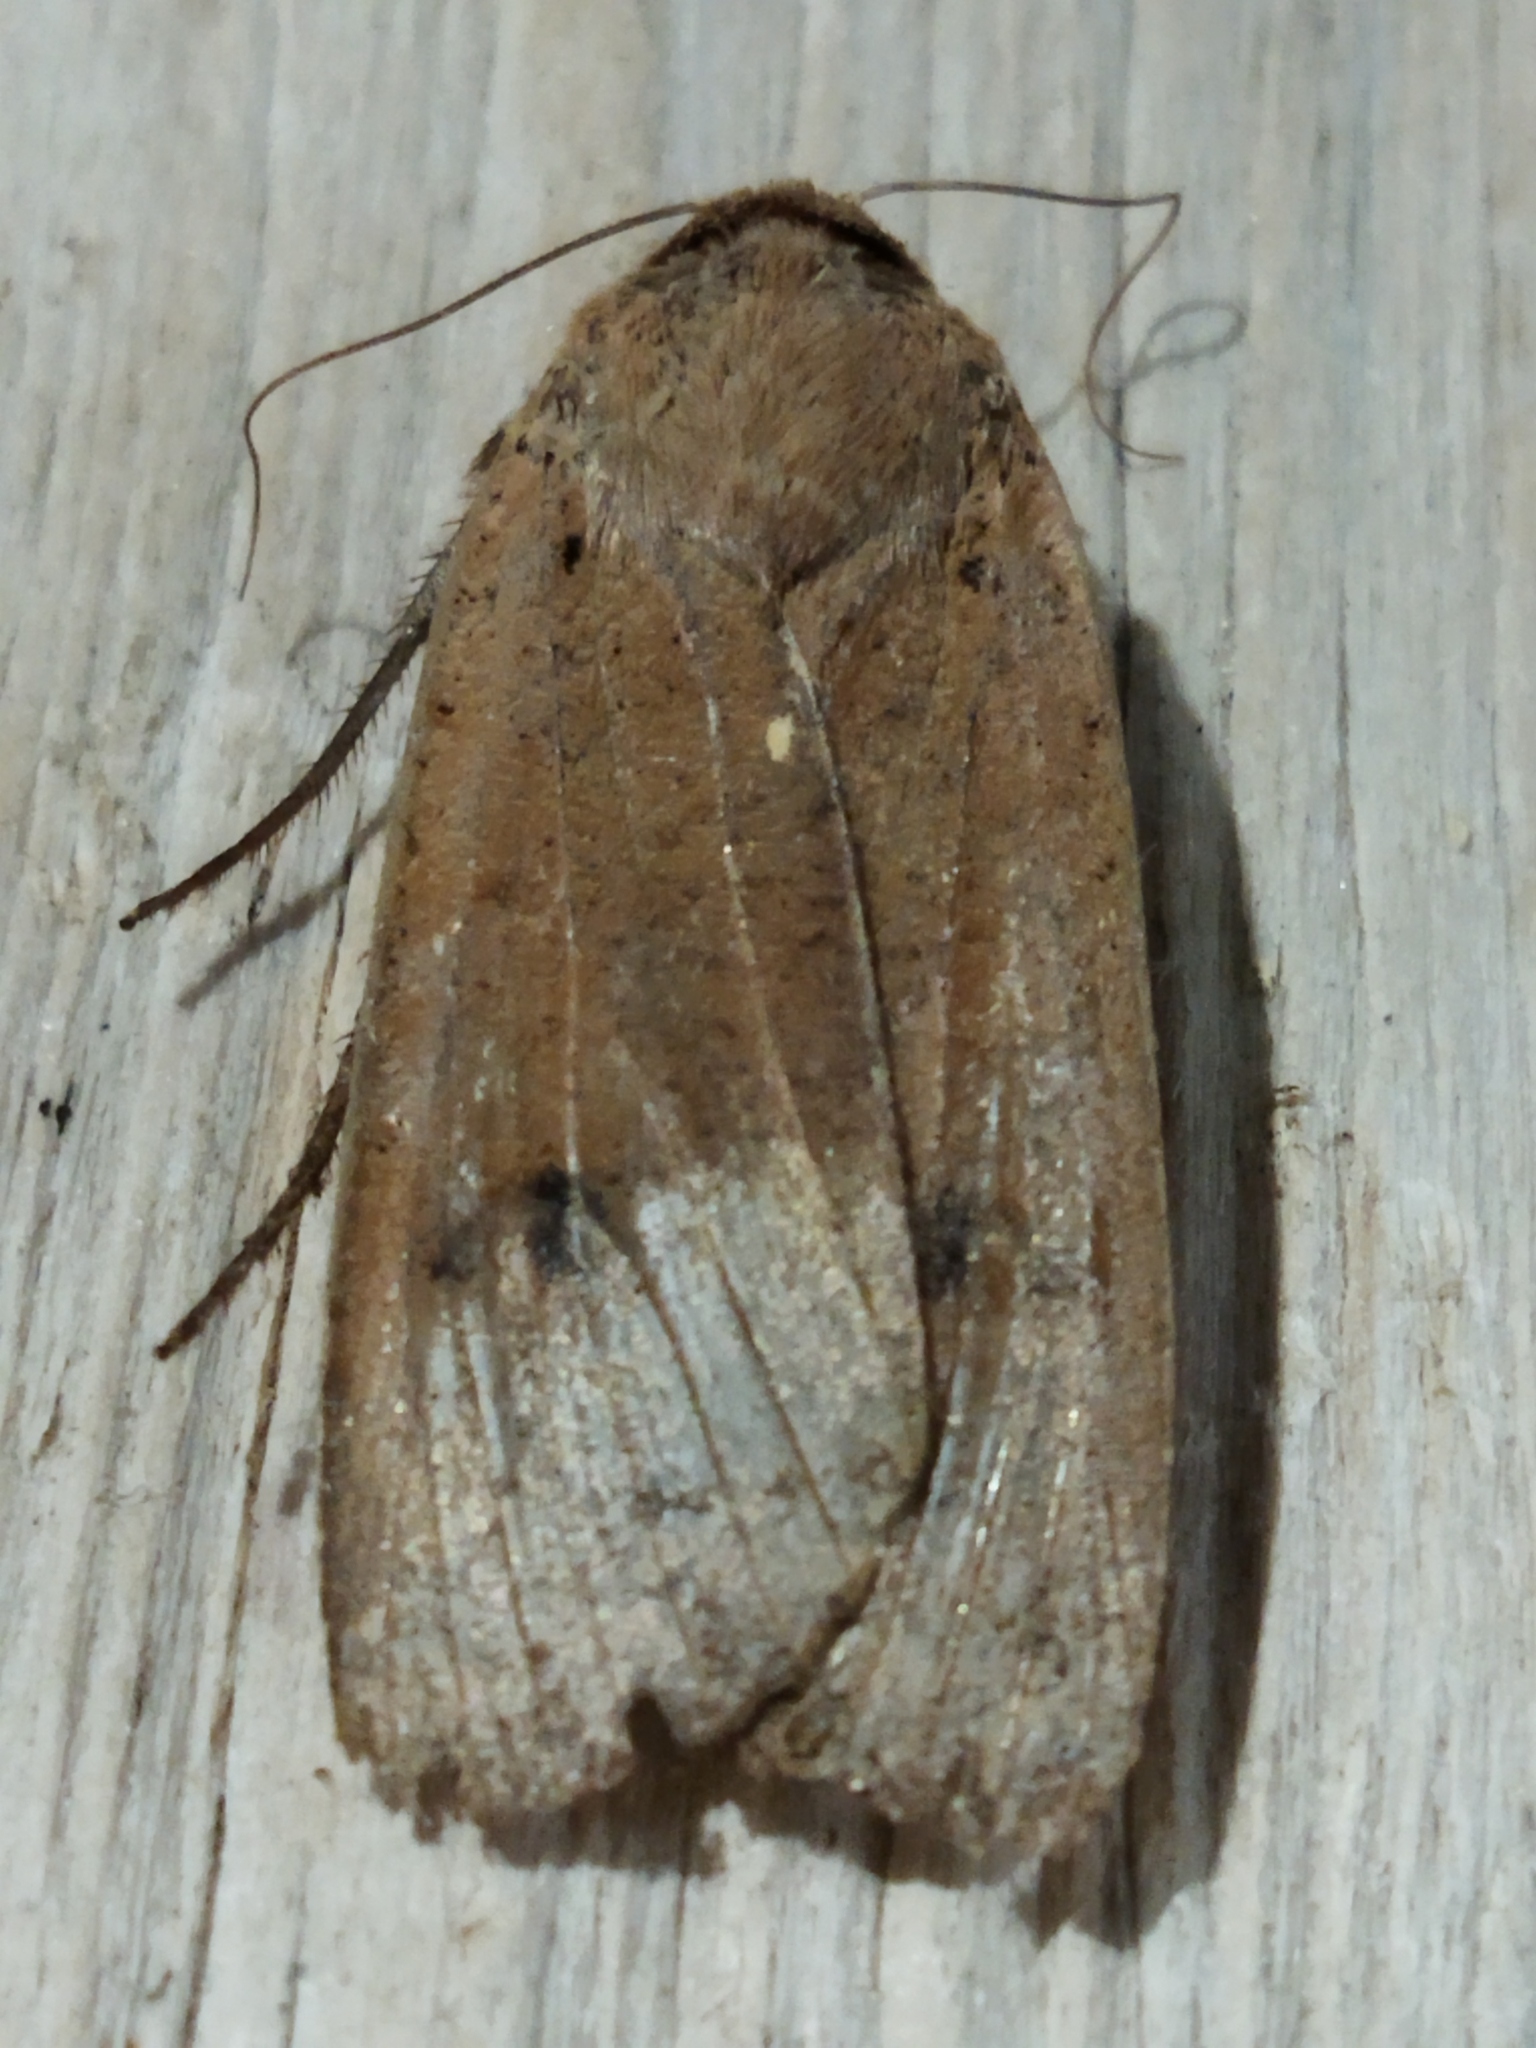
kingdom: Animalia
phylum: Arthropoda
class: Insecta
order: Lepidoptera
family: Noctuidae
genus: Noctua
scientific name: Noctua pronuba
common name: Large yellow underwing
